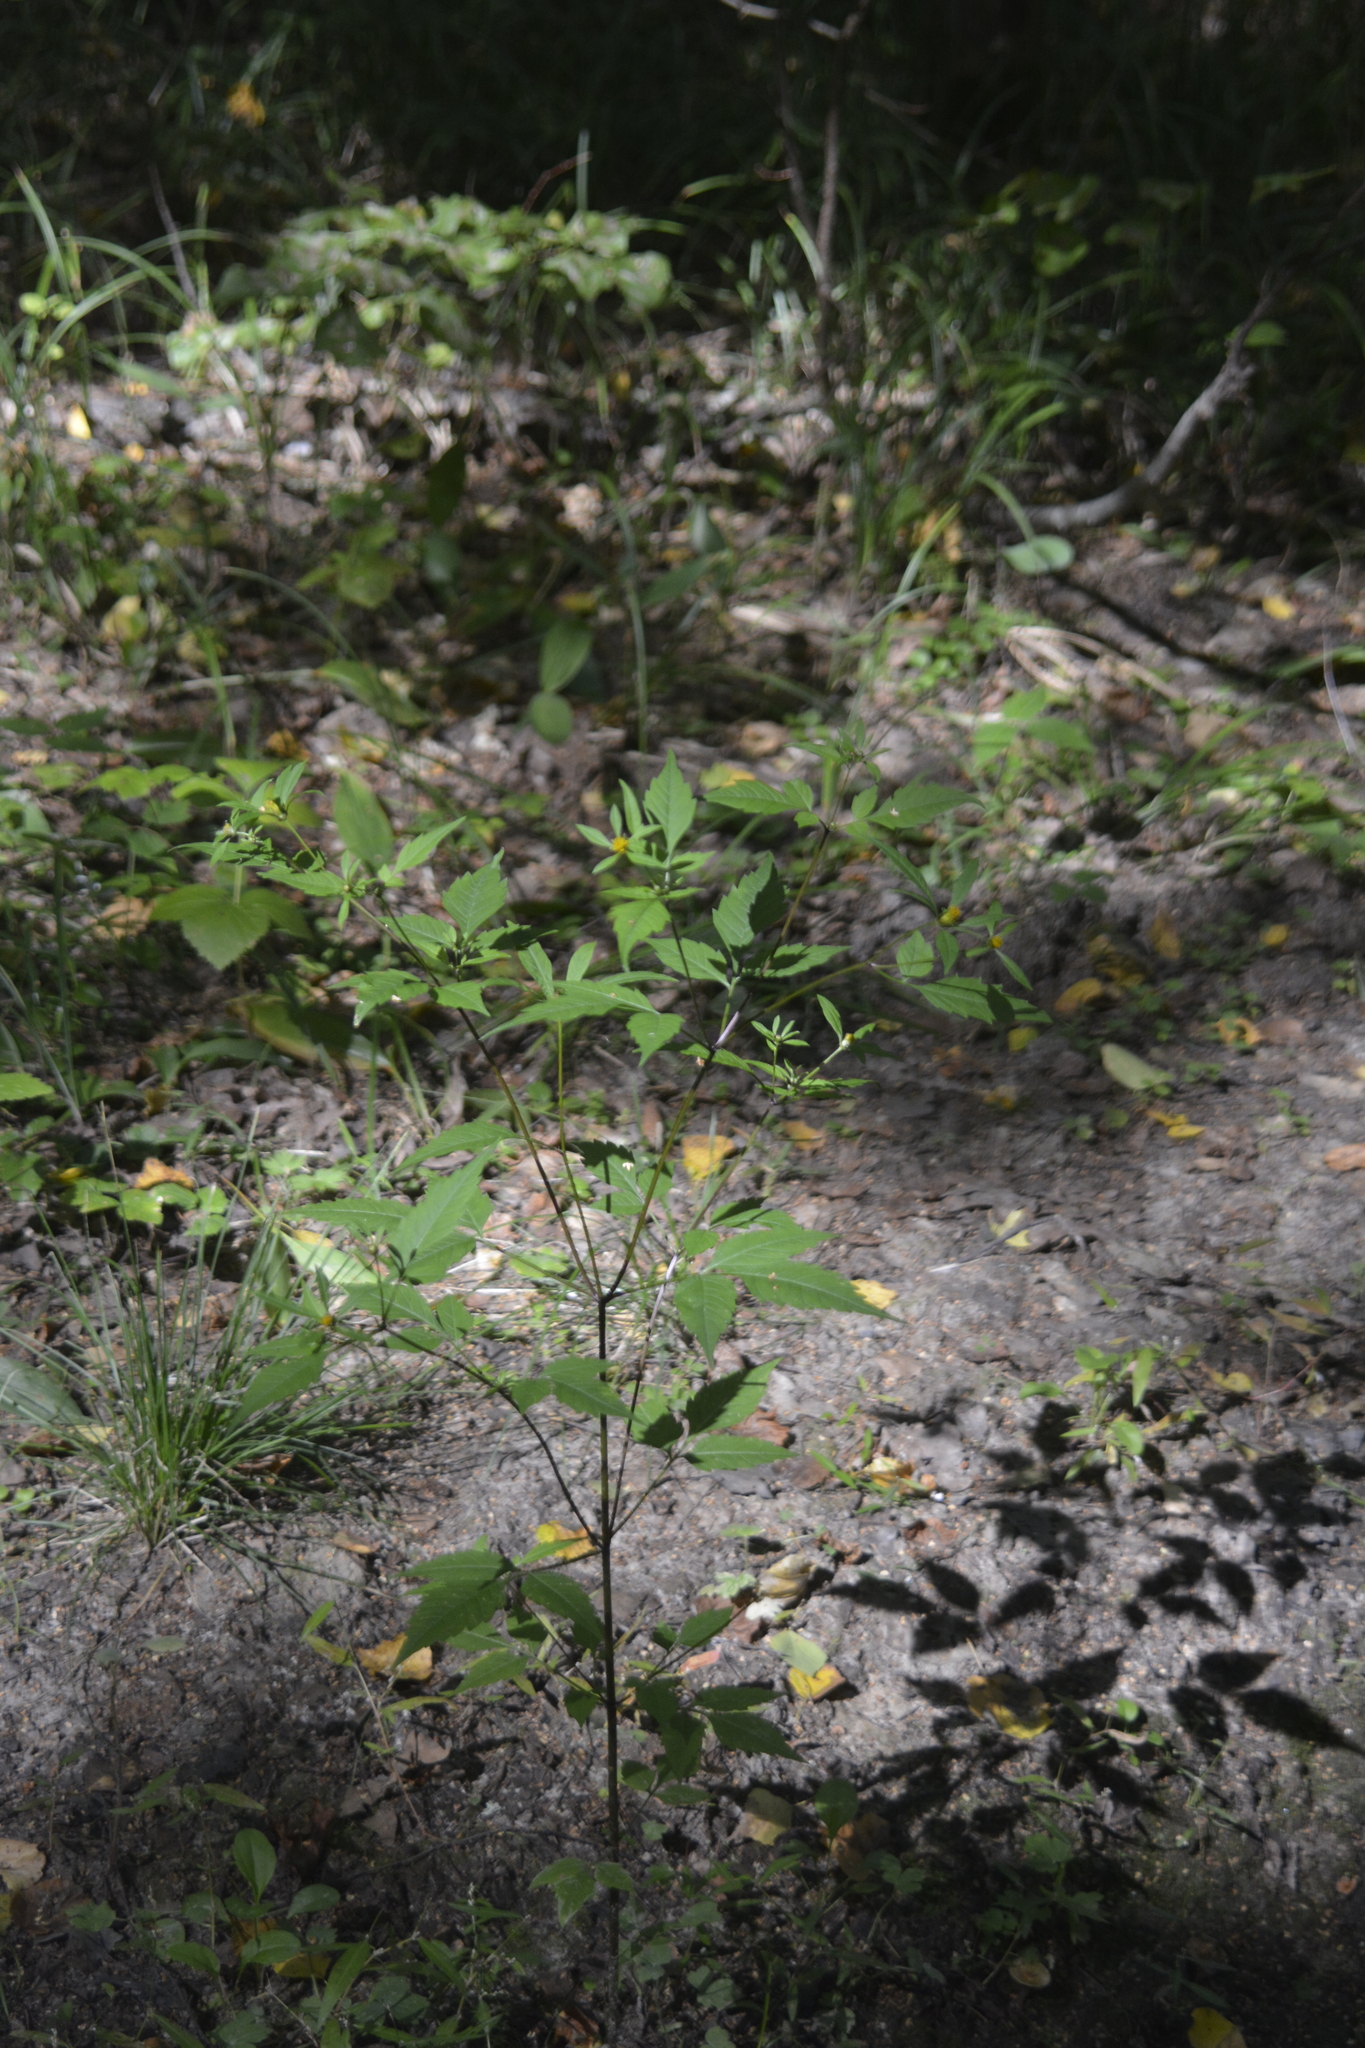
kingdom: Plantae
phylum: Tracheophyta
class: Magnoliopsida
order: Asterales
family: Asteraceae
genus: Bidens
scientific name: Bidens frondosa
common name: Beggarticks
